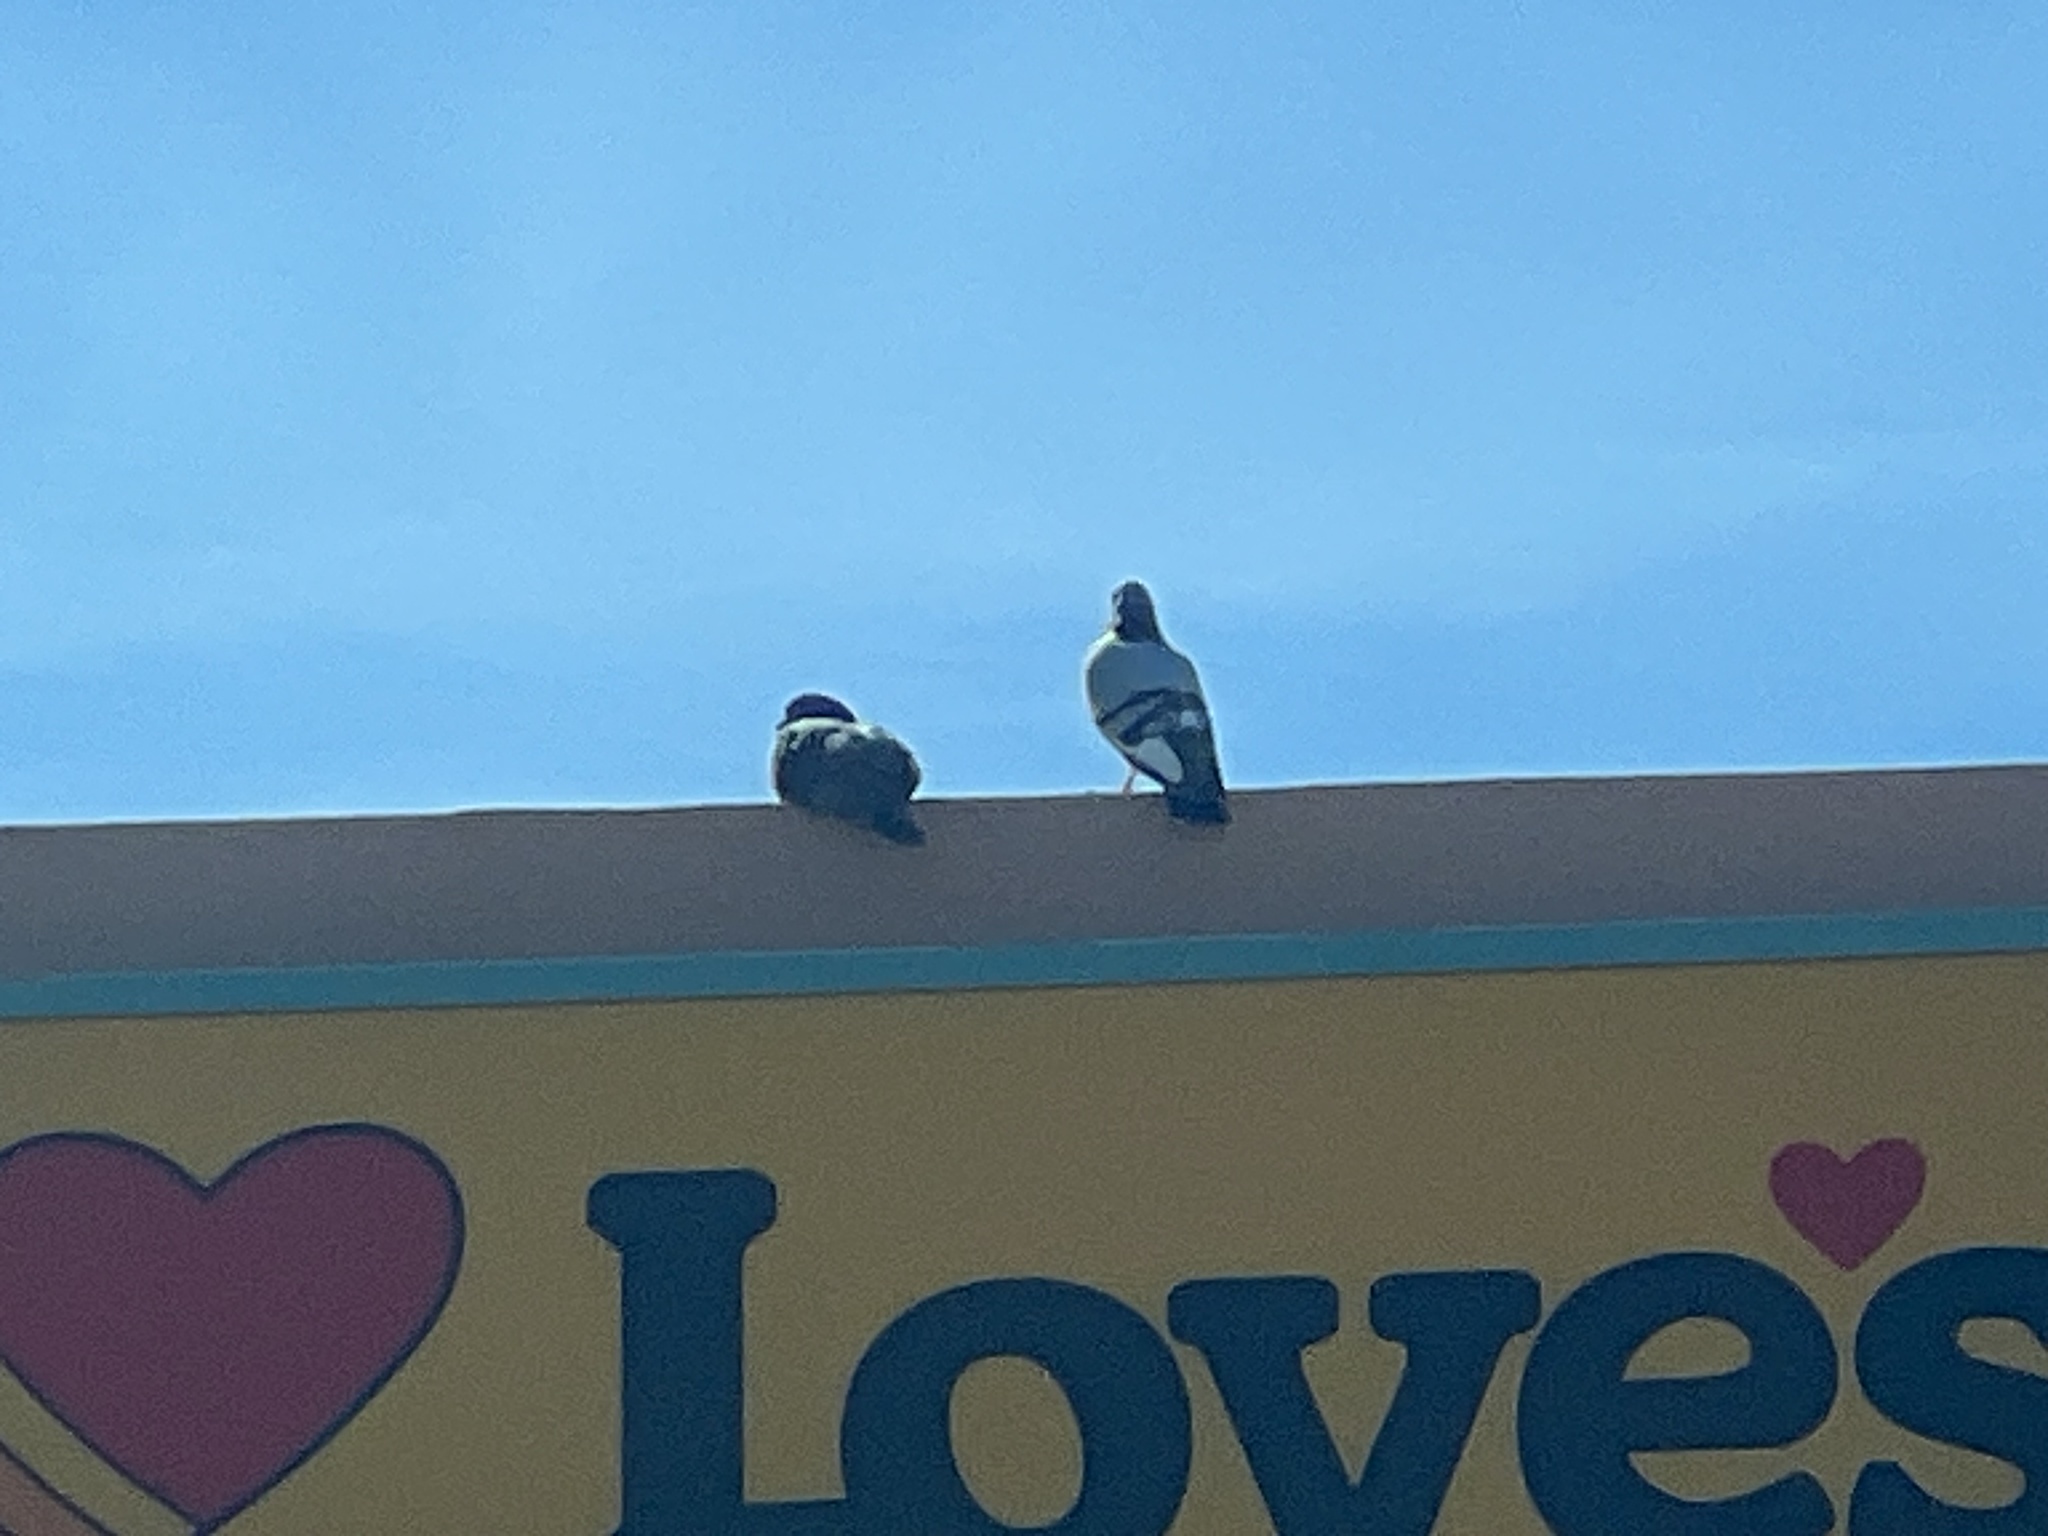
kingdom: Animalia
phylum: Chordata
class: Aves
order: Columbiformes
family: Columbidae
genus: Columba
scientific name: Columba livia
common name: Rock pigeon
